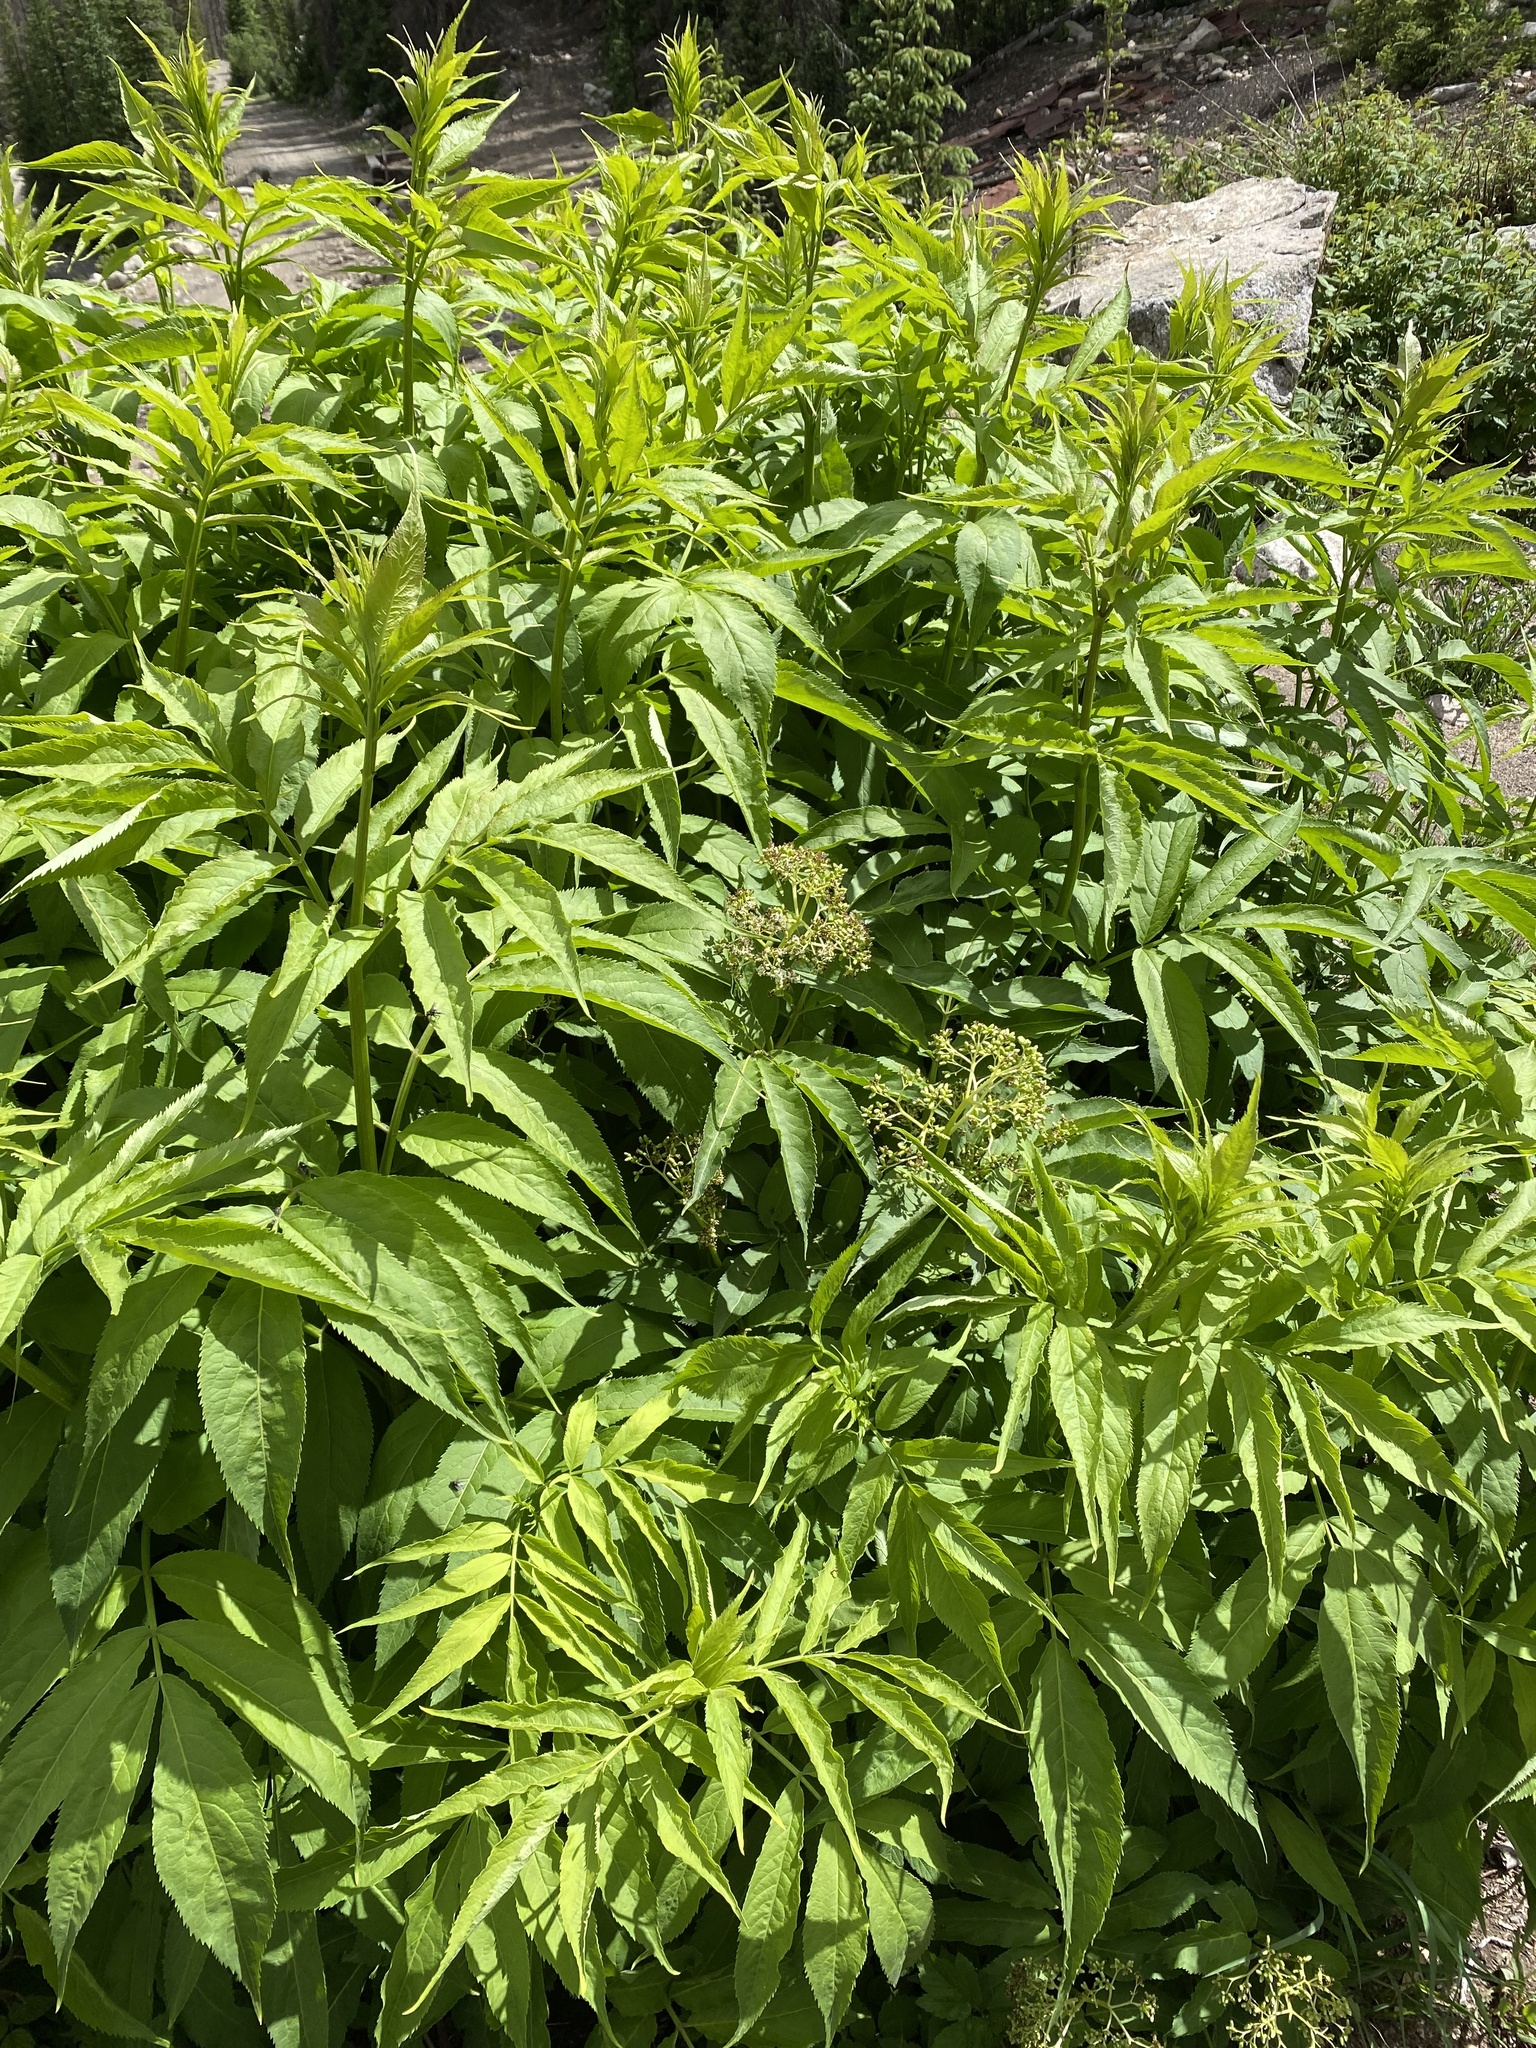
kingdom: Plantae
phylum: Tracheophyta
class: Magnoliopsida
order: Dipsacales
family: Viburnaceae
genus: Sambucus
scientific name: Sambucus racemosa
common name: Red-berried elder
